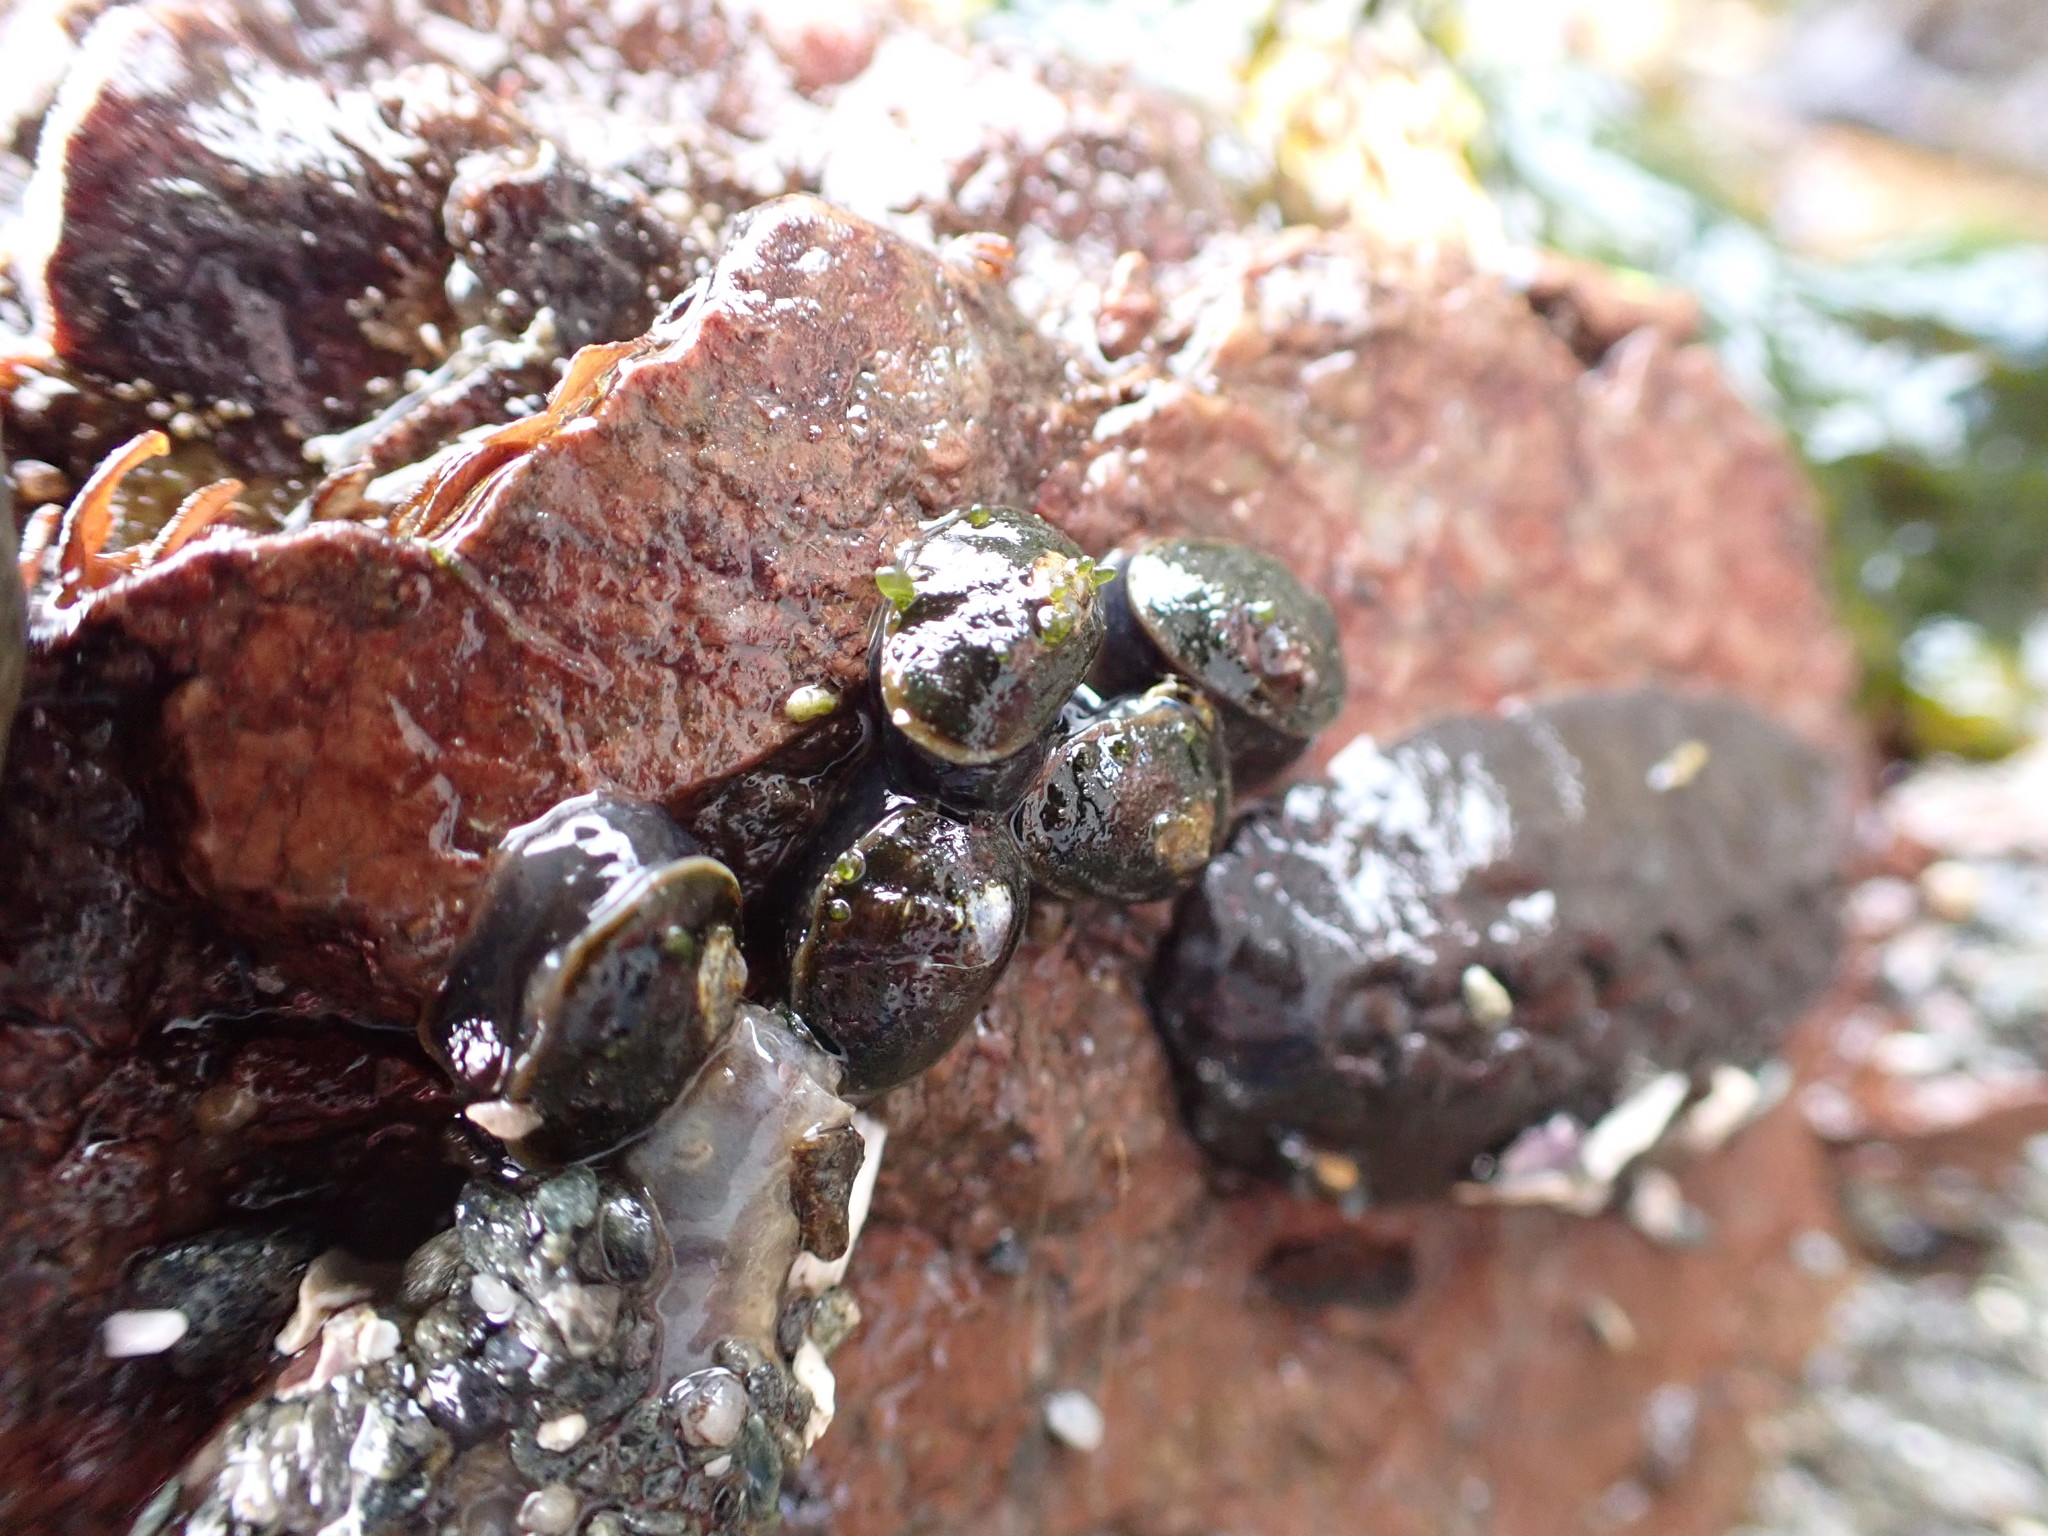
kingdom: Animalia
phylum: Mollusca
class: Gastropoda
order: Siphonariida
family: Siphonariidae
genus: Siphonaria
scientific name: Siphonaria thersites
